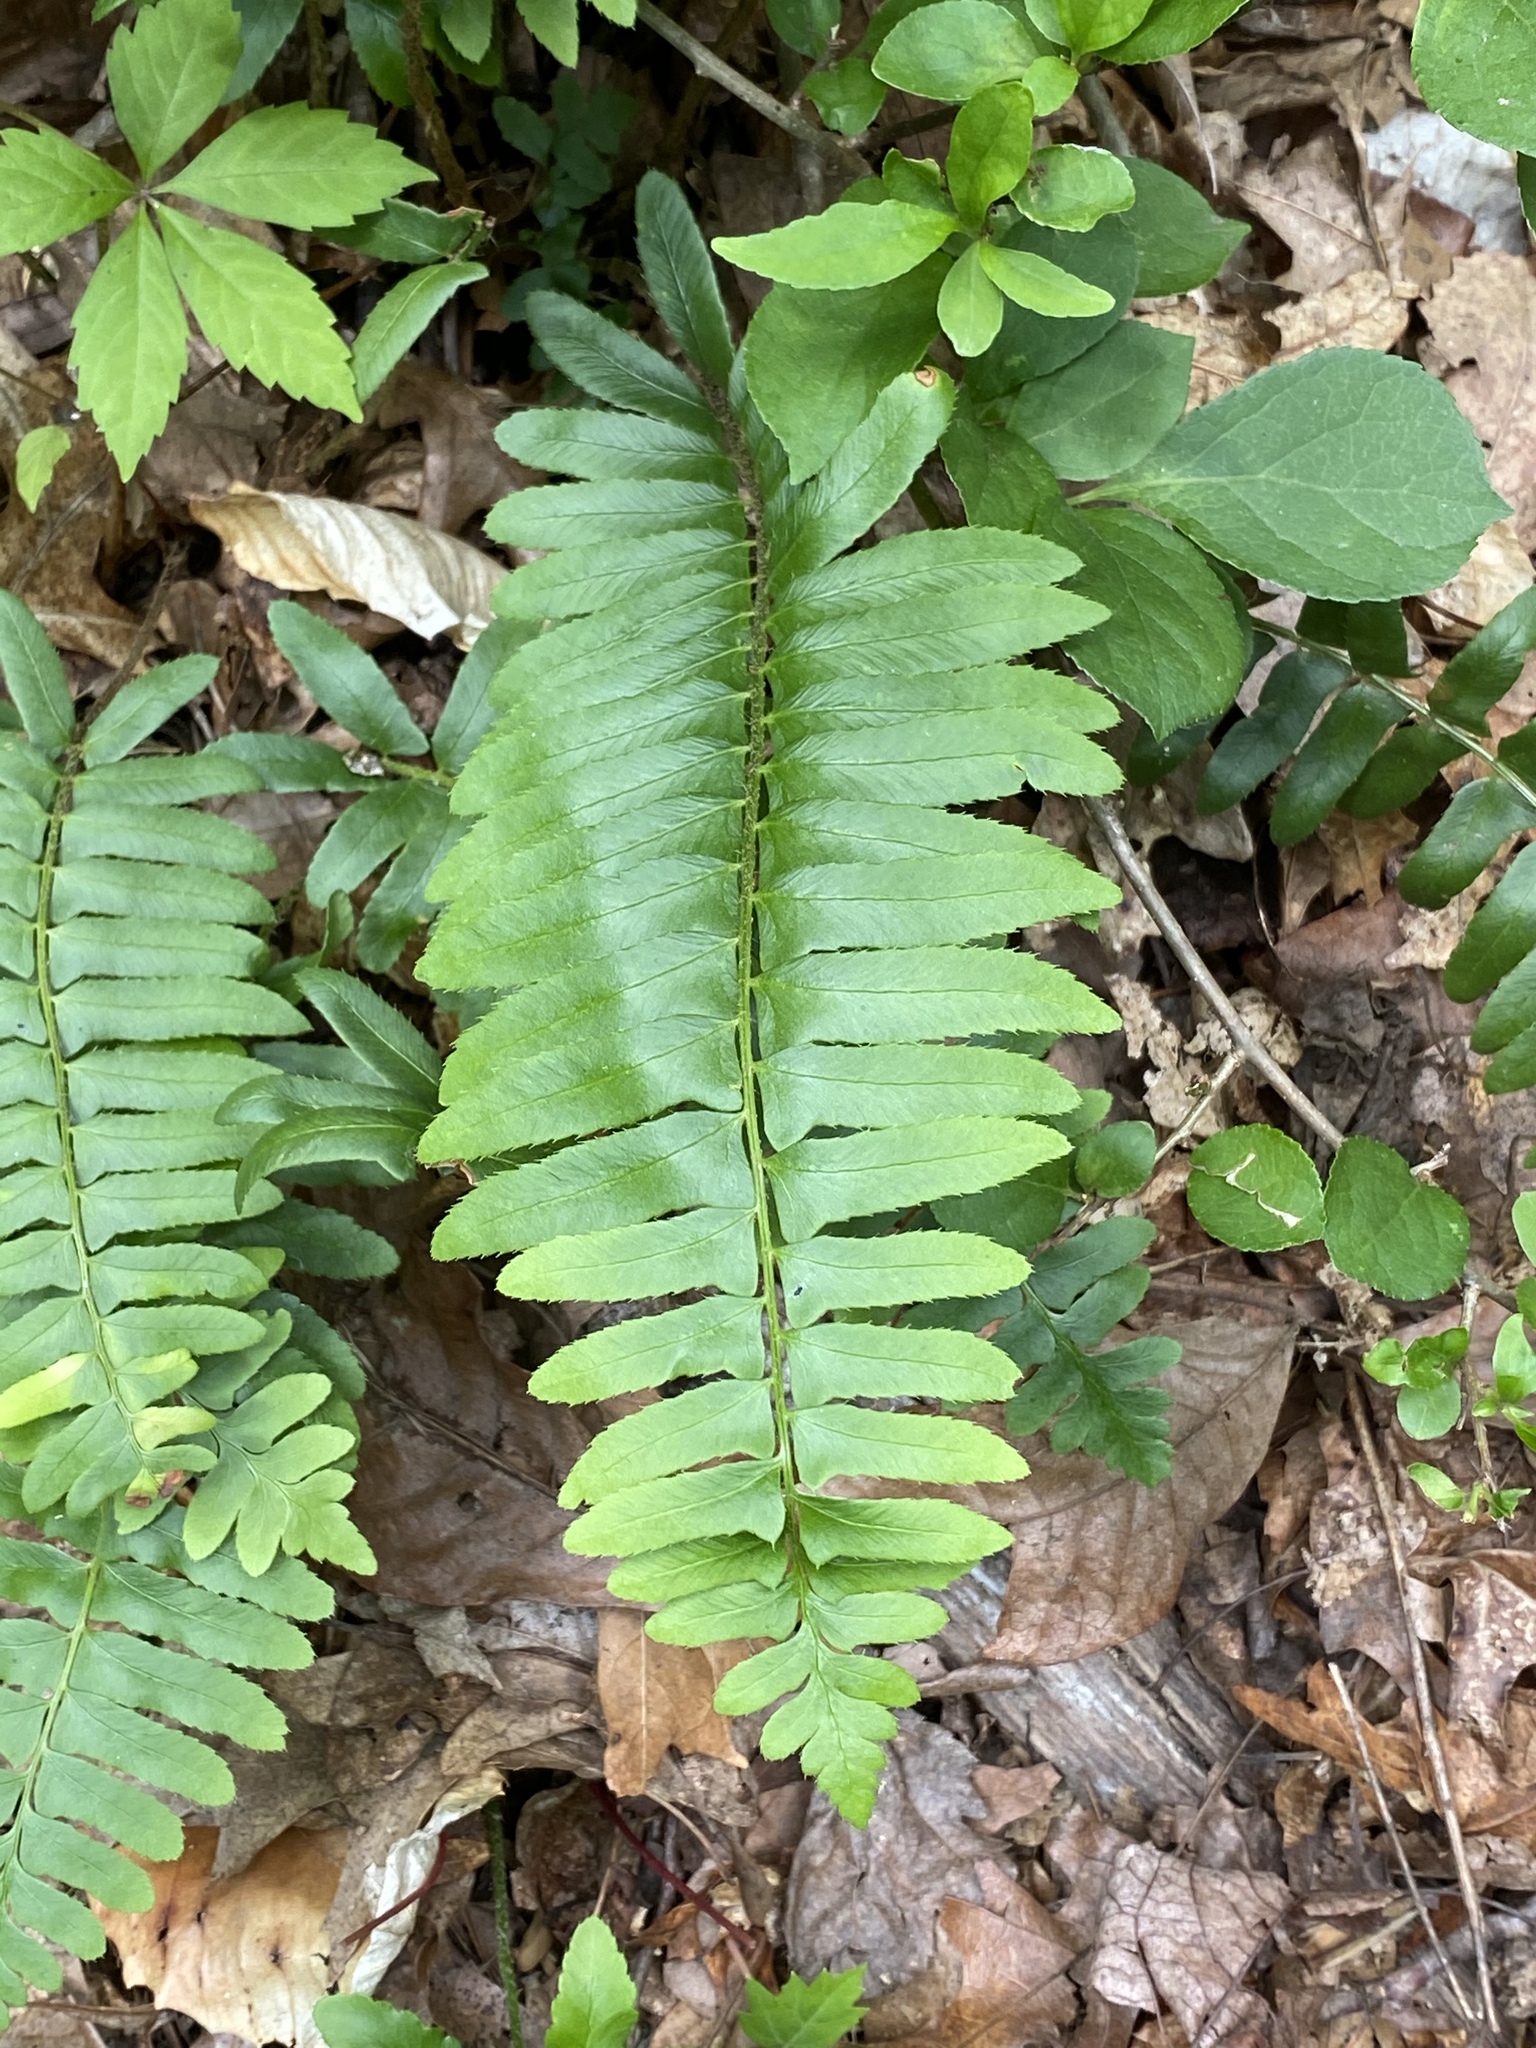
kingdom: Plantae
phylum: Tracheophyta
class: Polypodiopsida
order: Polypodiales
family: Dryopteridaceae
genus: Polystichum
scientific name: Polystichum acrostichoides
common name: Christmas fern
